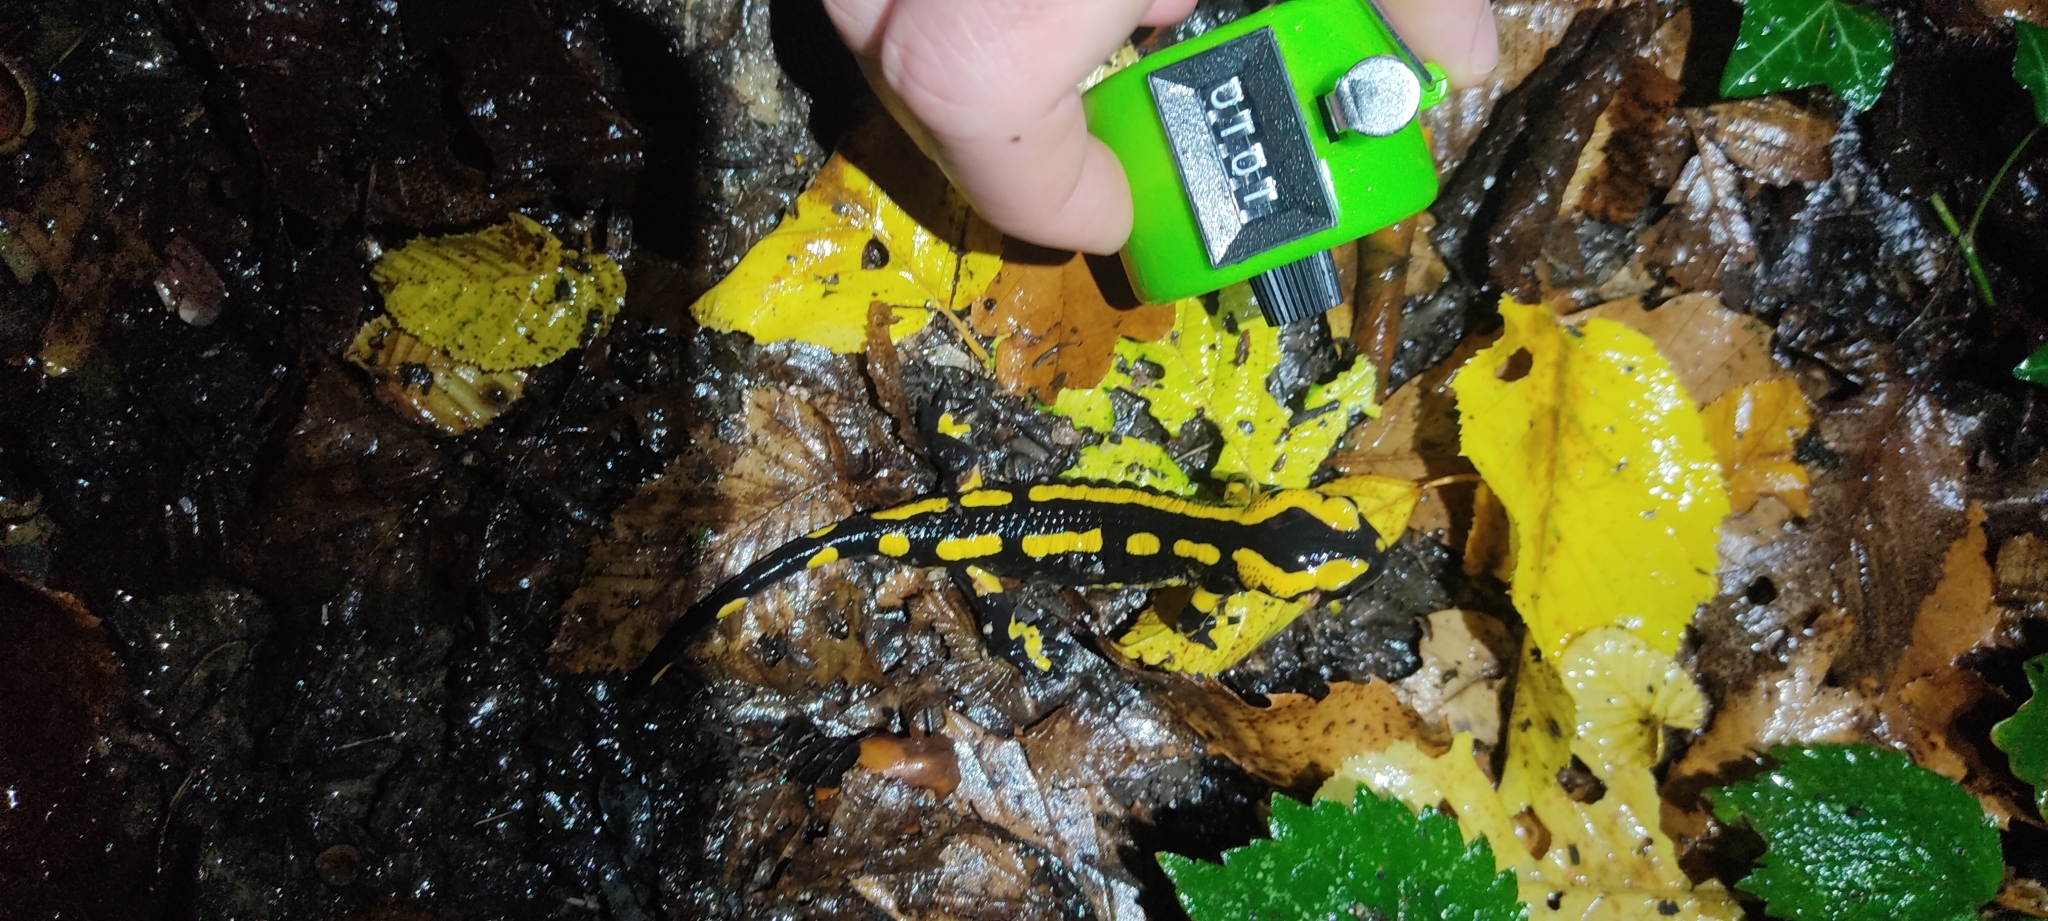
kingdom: Animalia
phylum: Chordata
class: Amphibia
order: Caudata
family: Salamandridae
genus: Salamandra
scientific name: Salamandra salamandra
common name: Fire salamander
